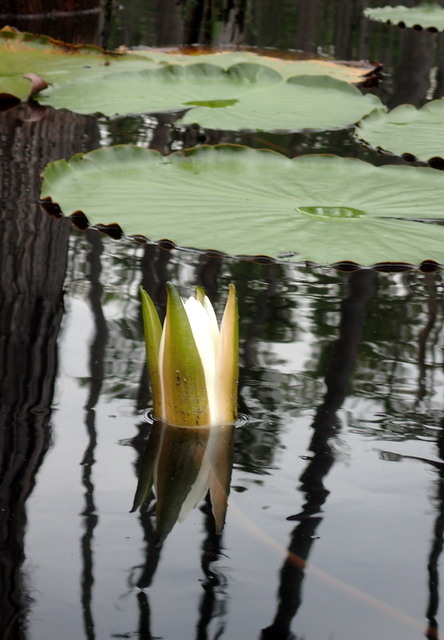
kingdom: Plantae
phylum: Tracheophyta
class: Magnoliopsida
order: Nymphaeales
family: Nymphaeaceae
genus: Nymphaea
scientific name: Nymphaea odorata
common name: Fragrant water-lily
